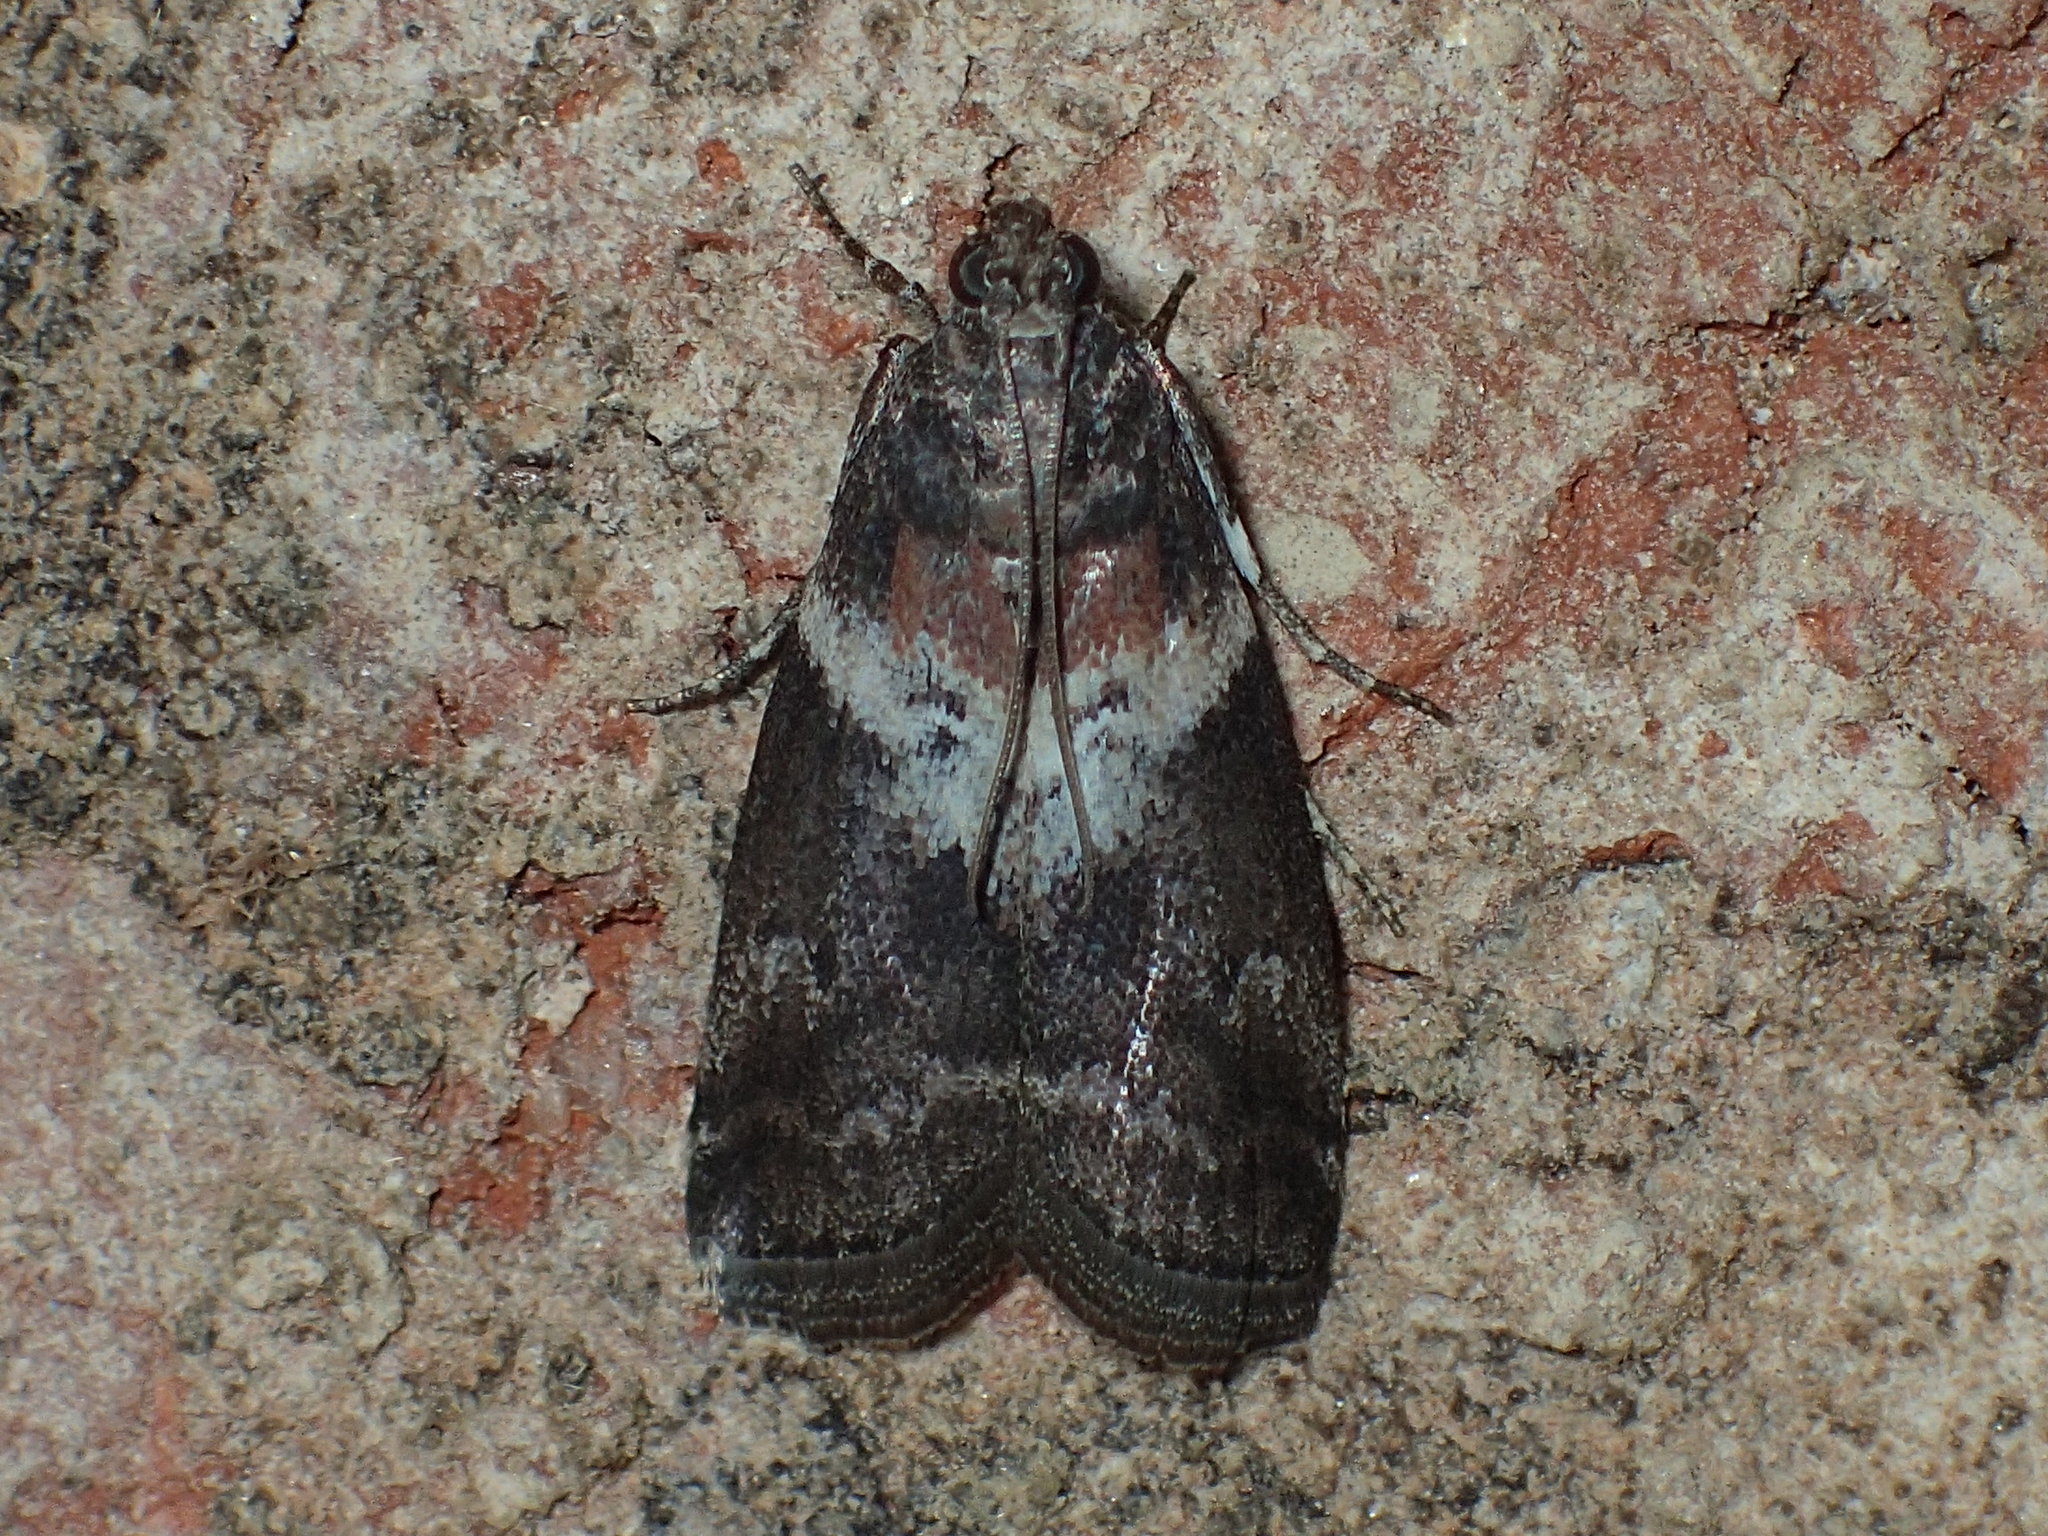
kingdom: Animalia
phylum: Arthropoda
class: Insecta
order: Lepidoptera
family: Pyralidae
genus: Salebriaria
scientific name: Salebriaria rufimaculatella
